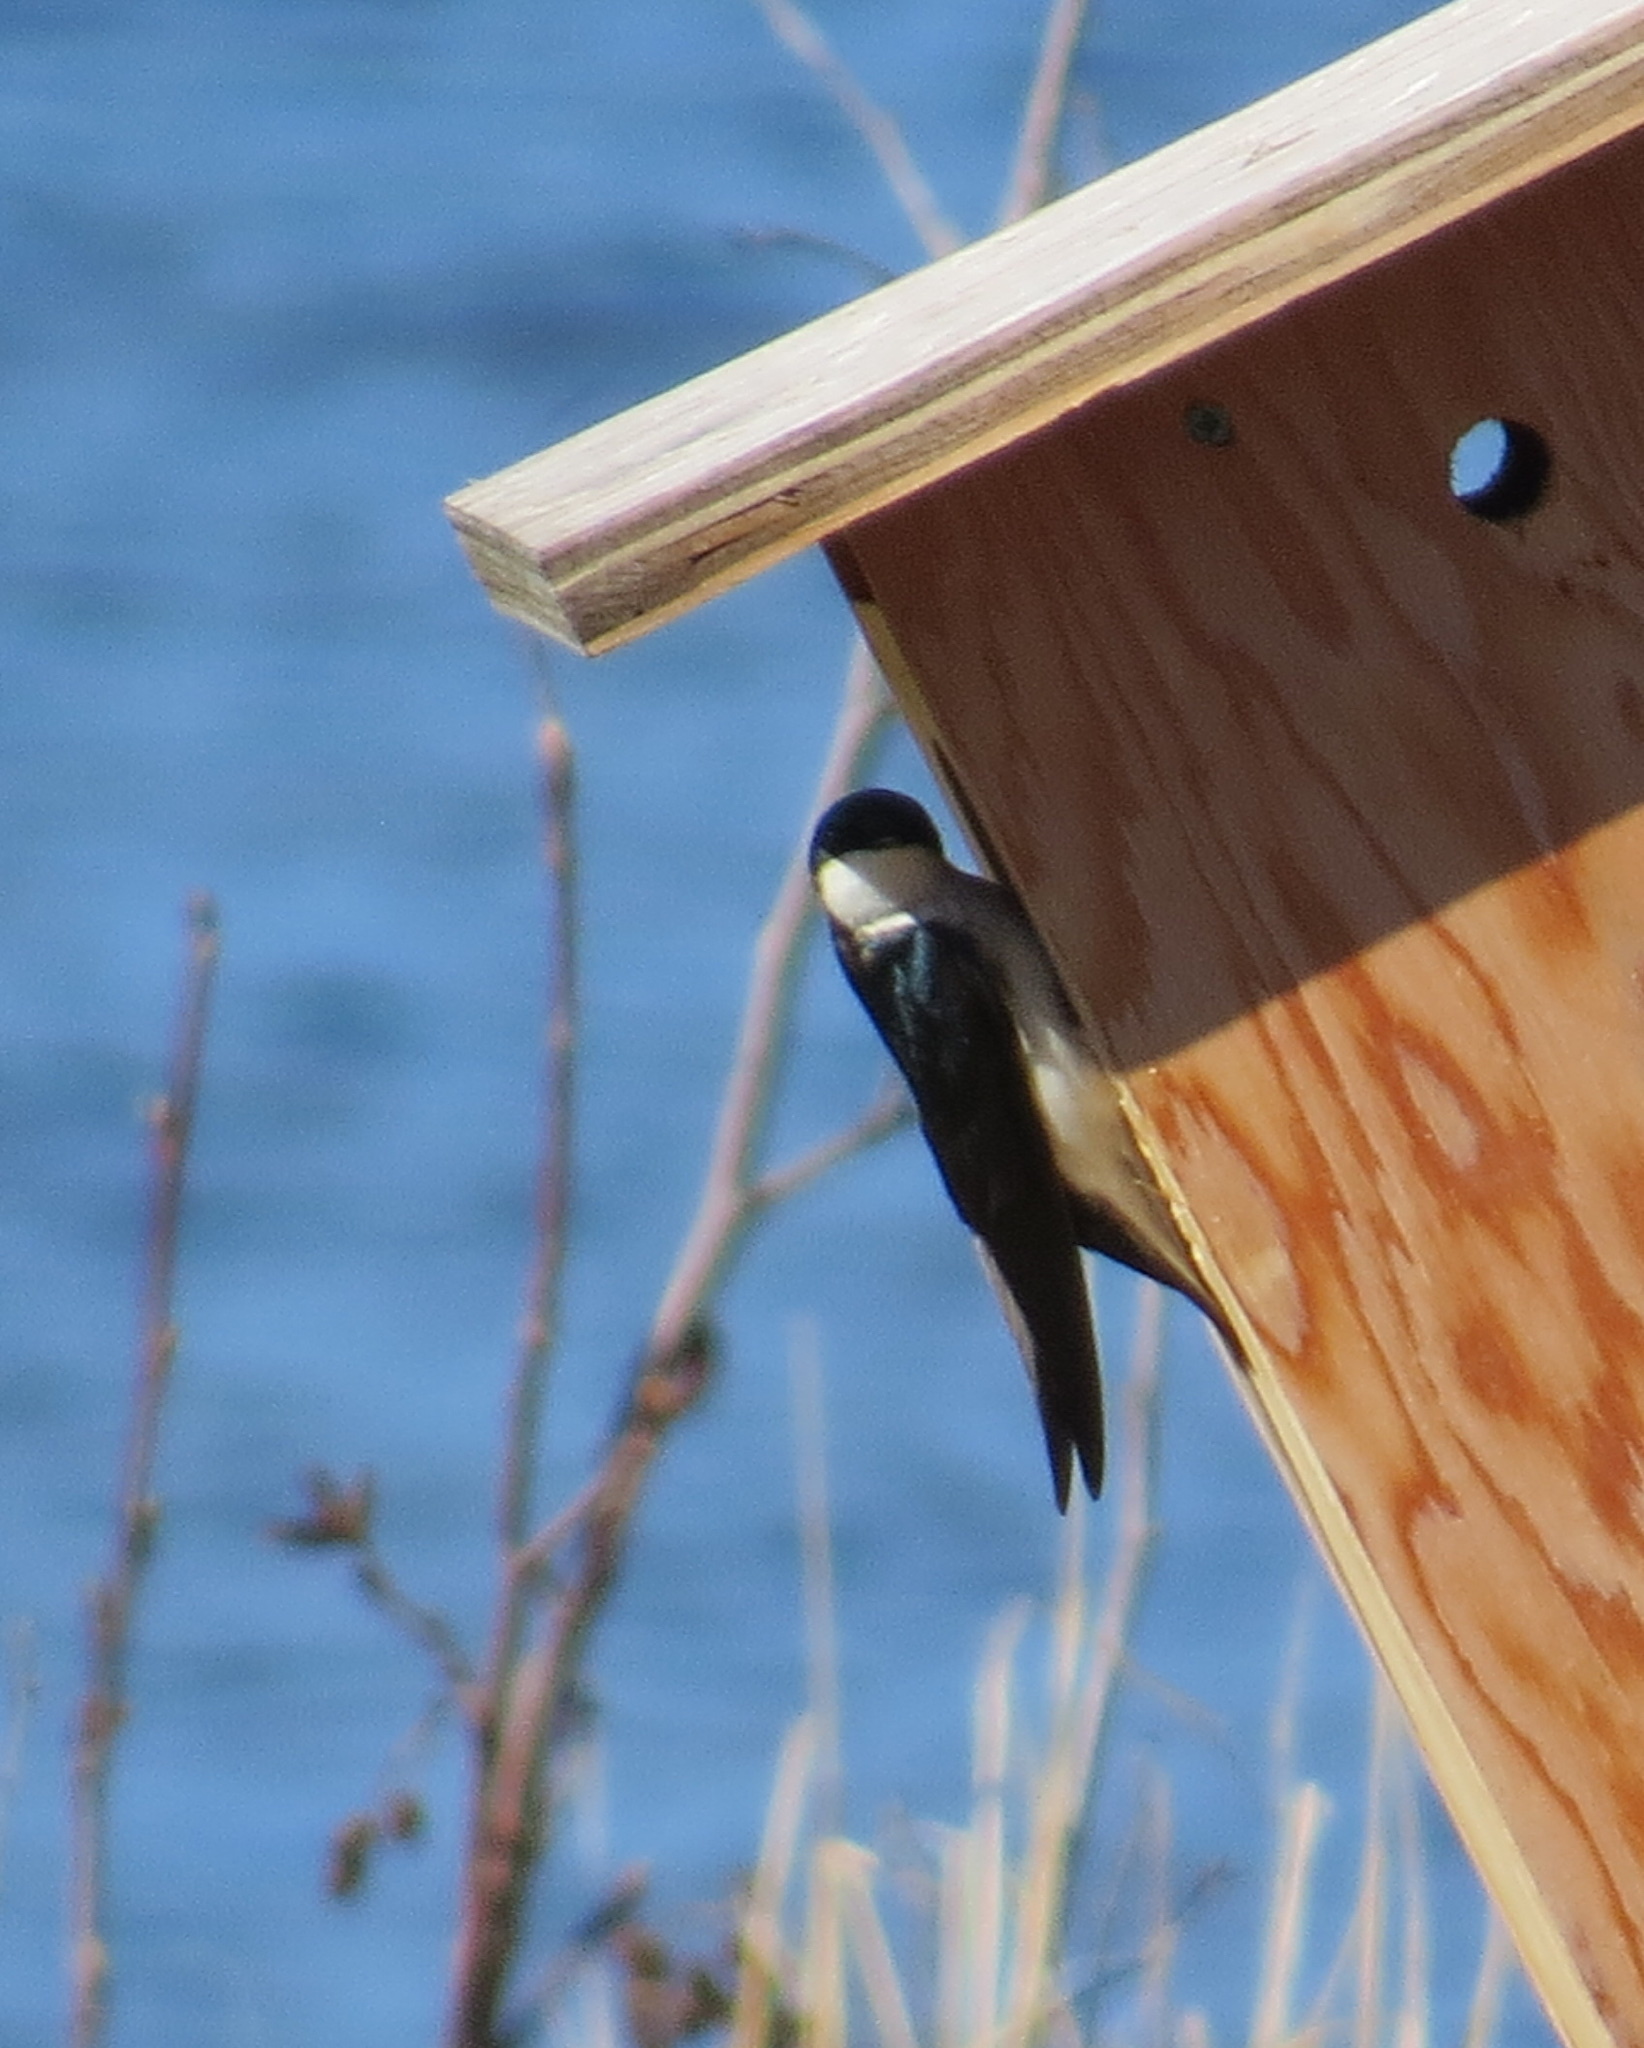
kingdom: Animalia
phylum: Chordata
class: Aves
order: Passeriformes
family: Hirundinidae
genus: Tachycineta
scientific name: Tachycineta bicolor
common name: Tree swallow
